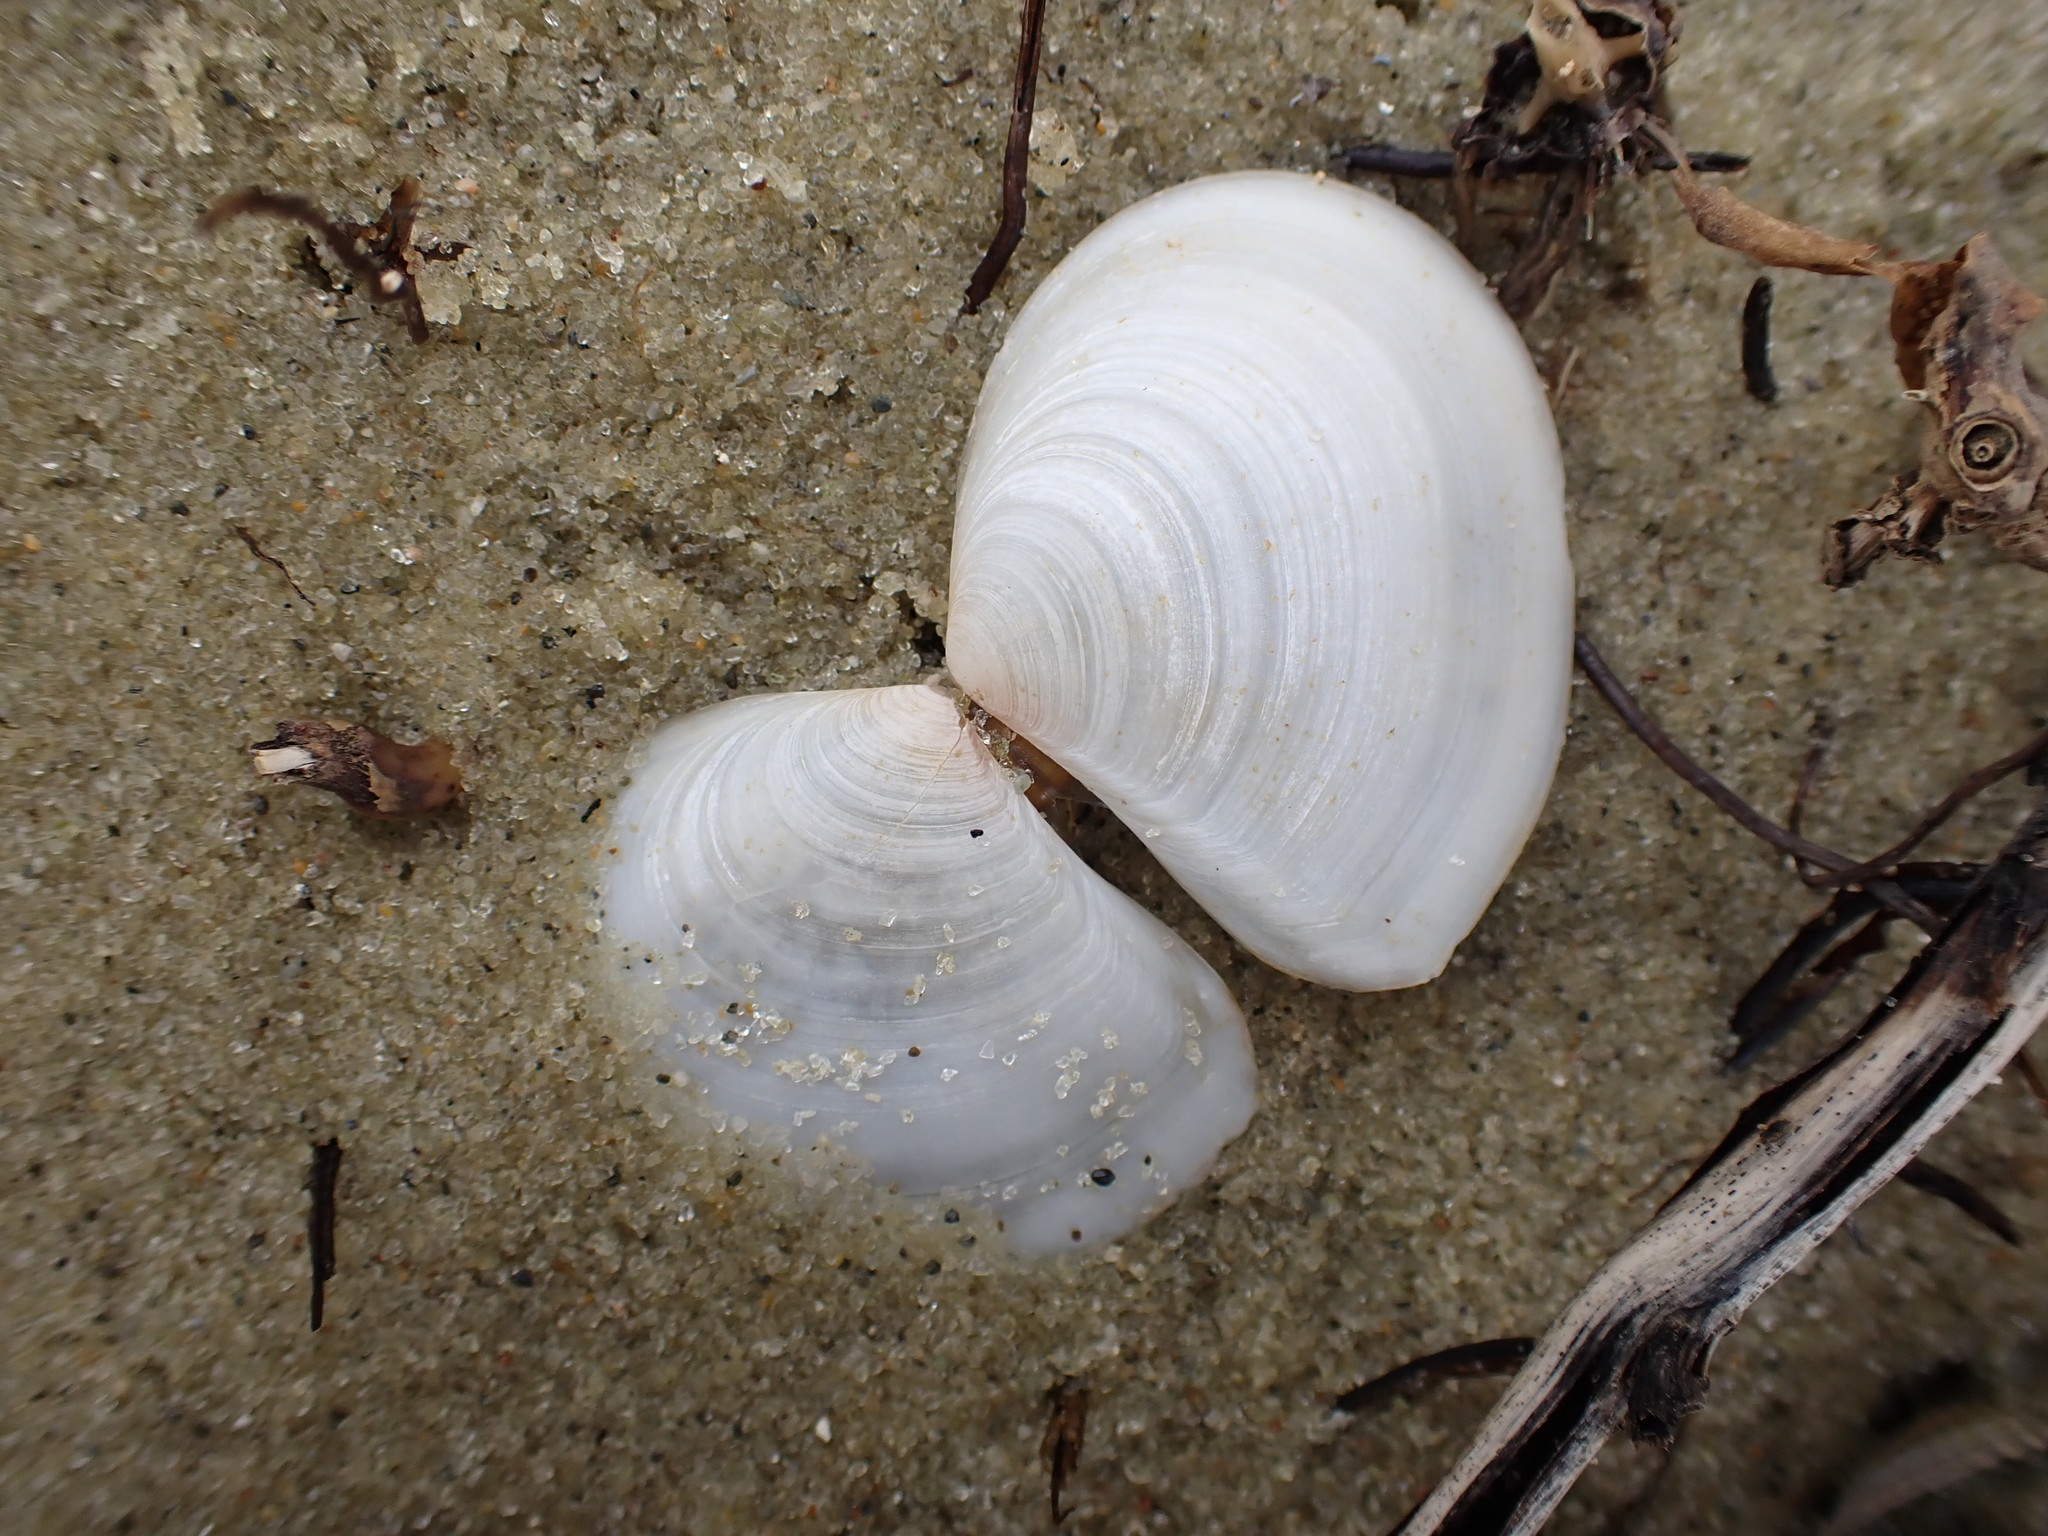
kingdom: Animalia
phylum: Mollusca
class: Bivalvia
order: Cardiida
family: Tellinidae
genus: Macomona
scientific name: Macomona liliana
